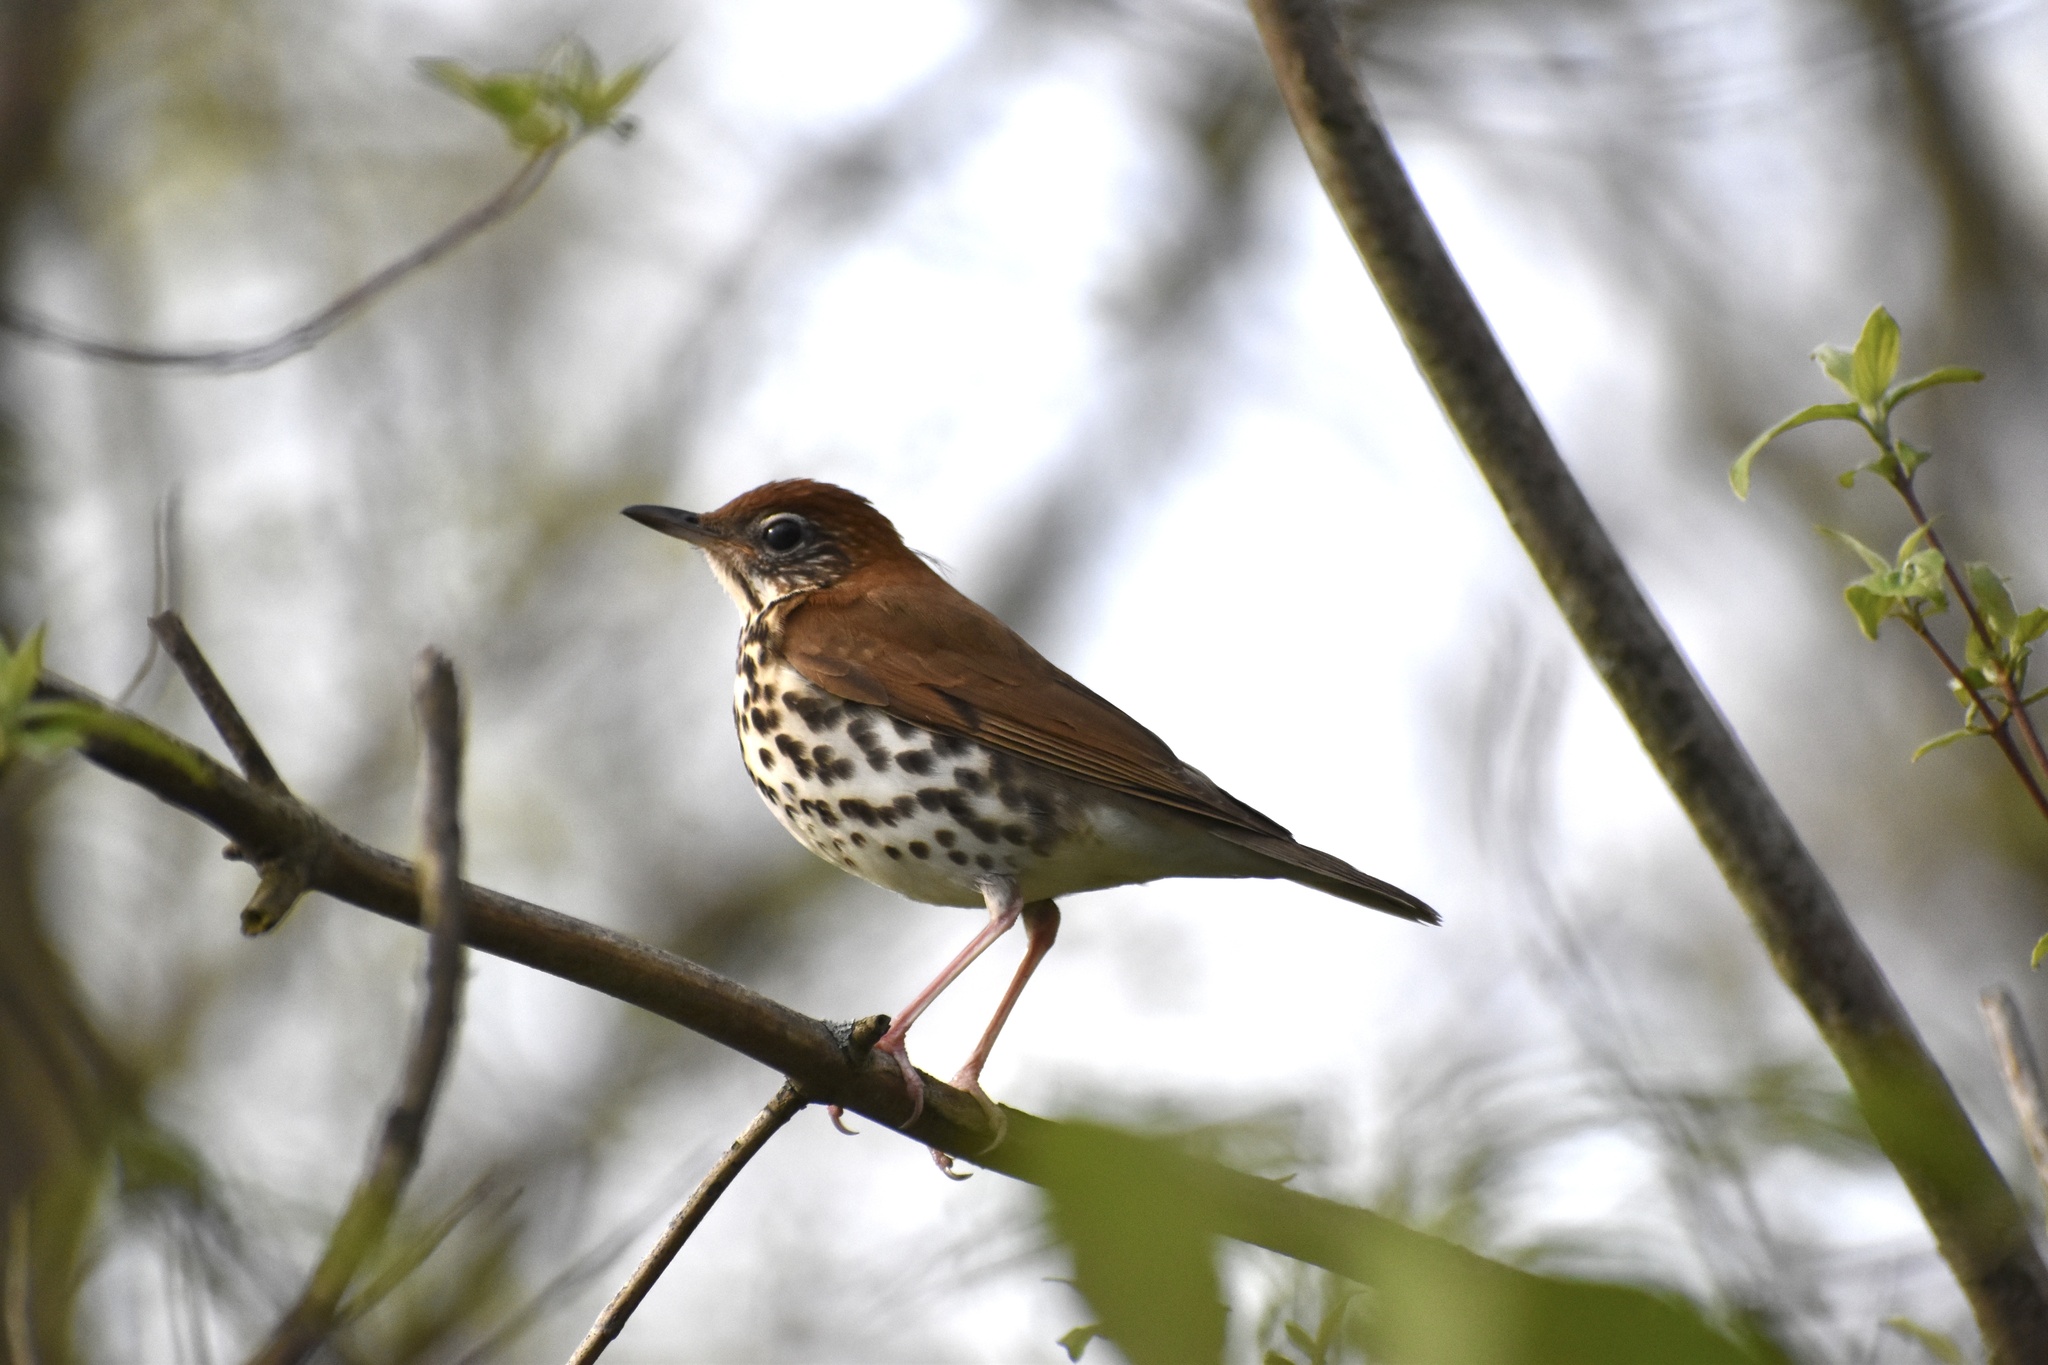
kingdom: Animalia
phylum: Chordata
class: Aves
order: Passeriformes
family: Turdidae
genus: Hylocichla
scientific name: Hylocichla mustelina
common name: Wood thrush
